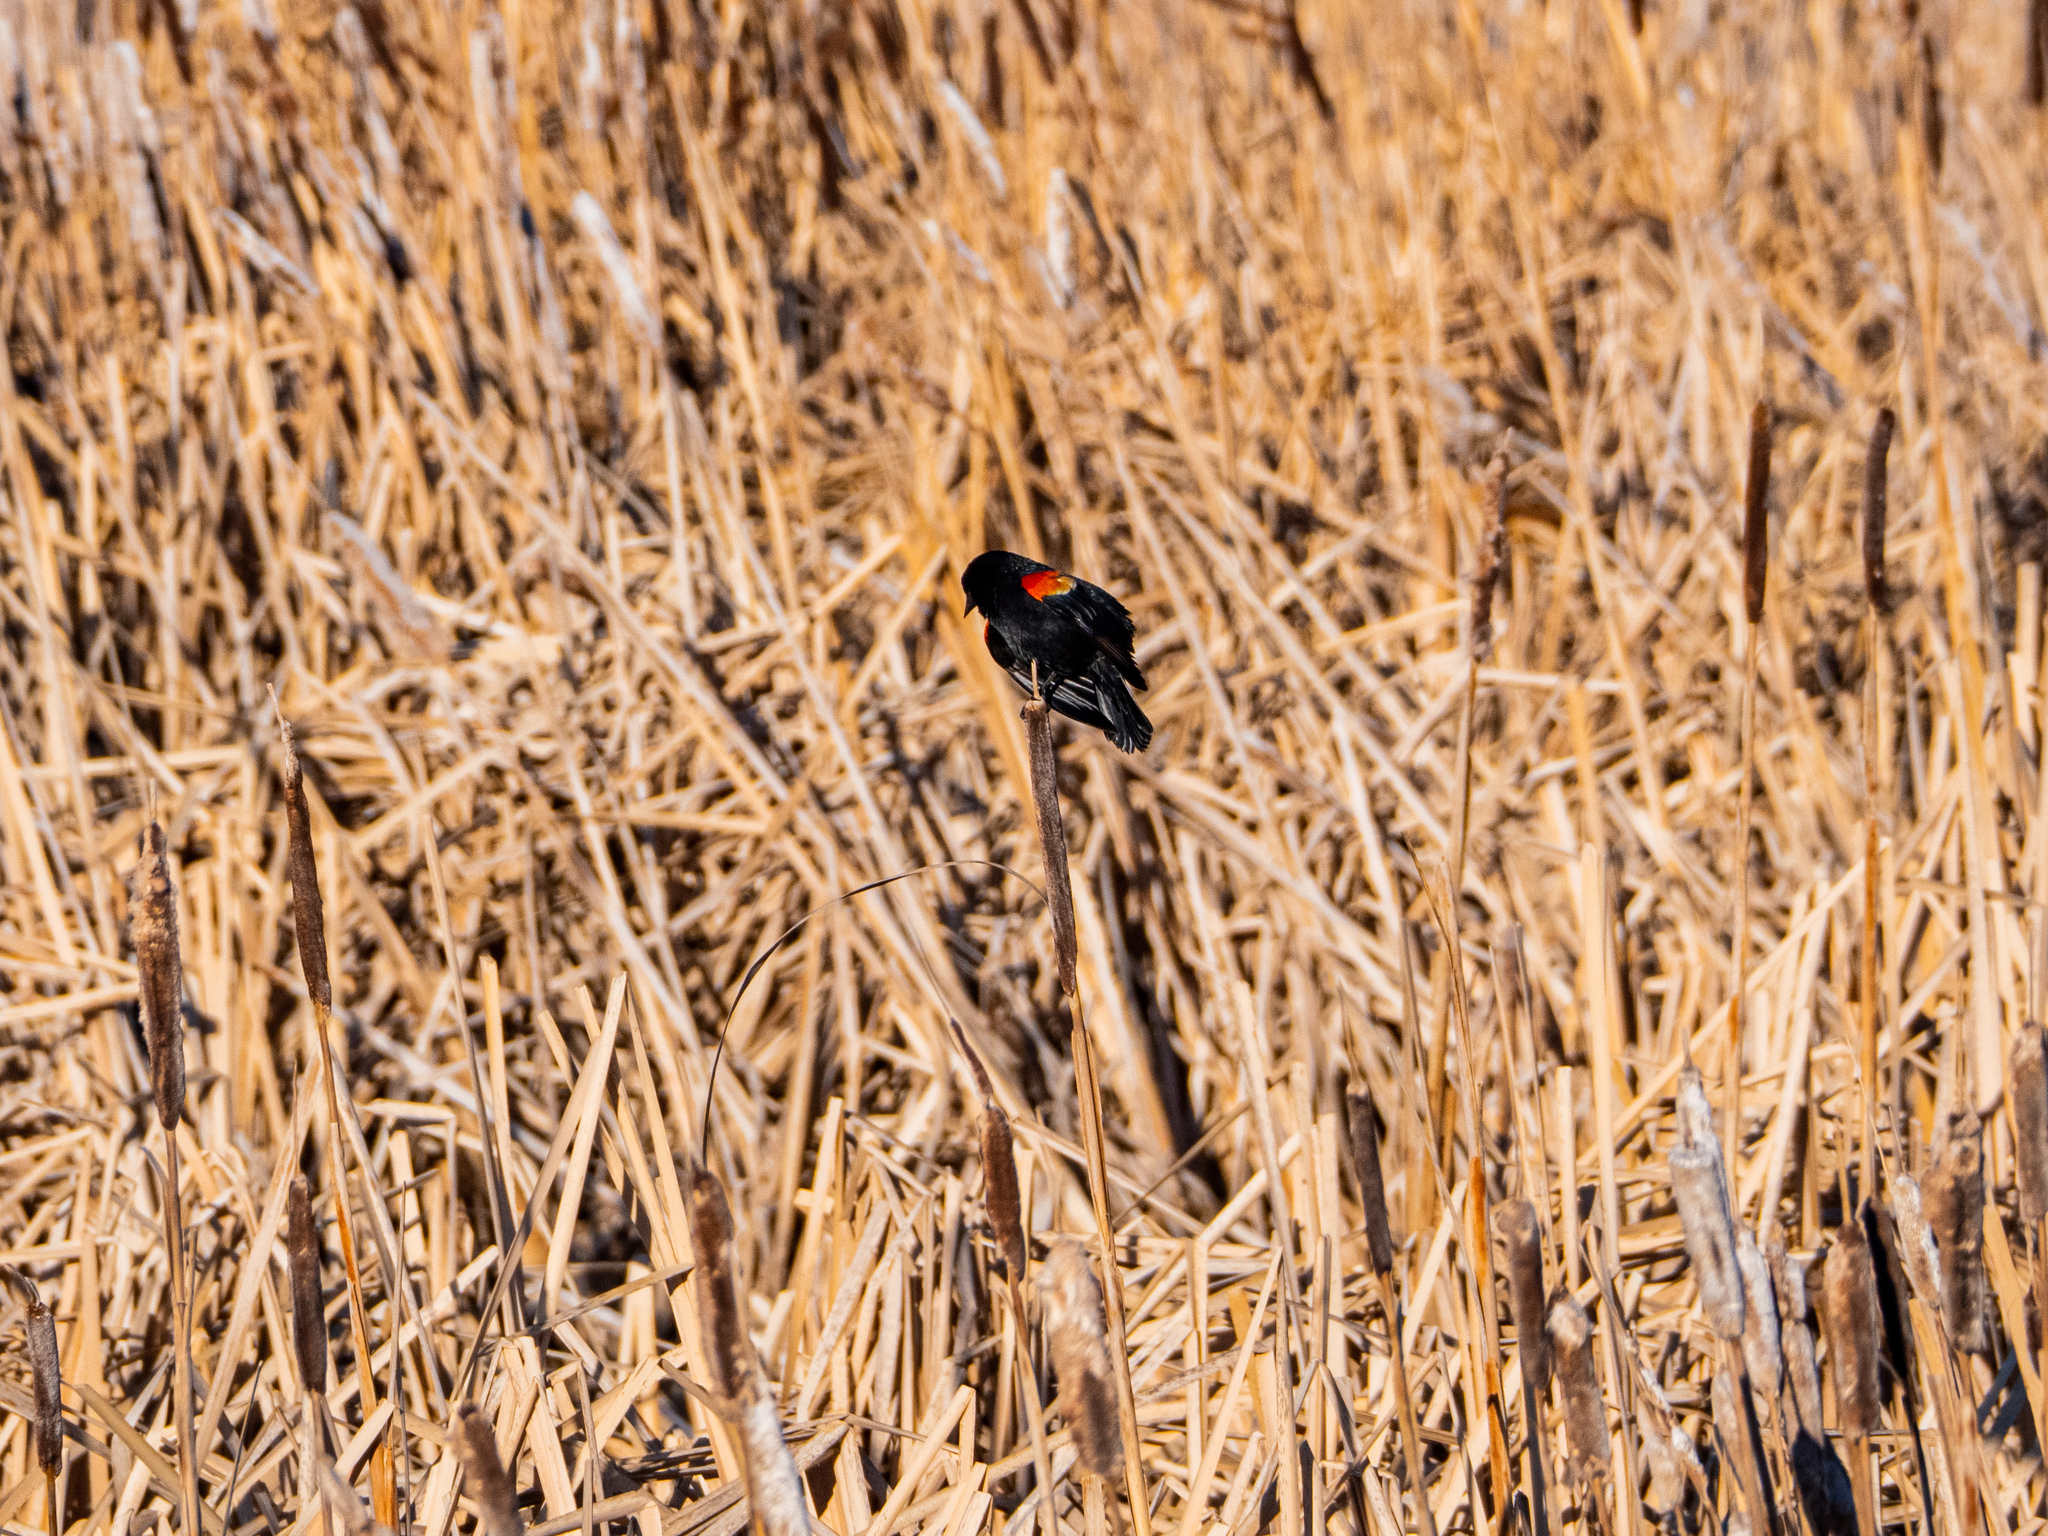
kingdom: Animalia
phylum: Chordata
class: Aves
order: Passeriformes
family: Icteridae
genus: Agelaius
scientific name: Agelaius phoeniceus
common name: Red-winged blackbird
